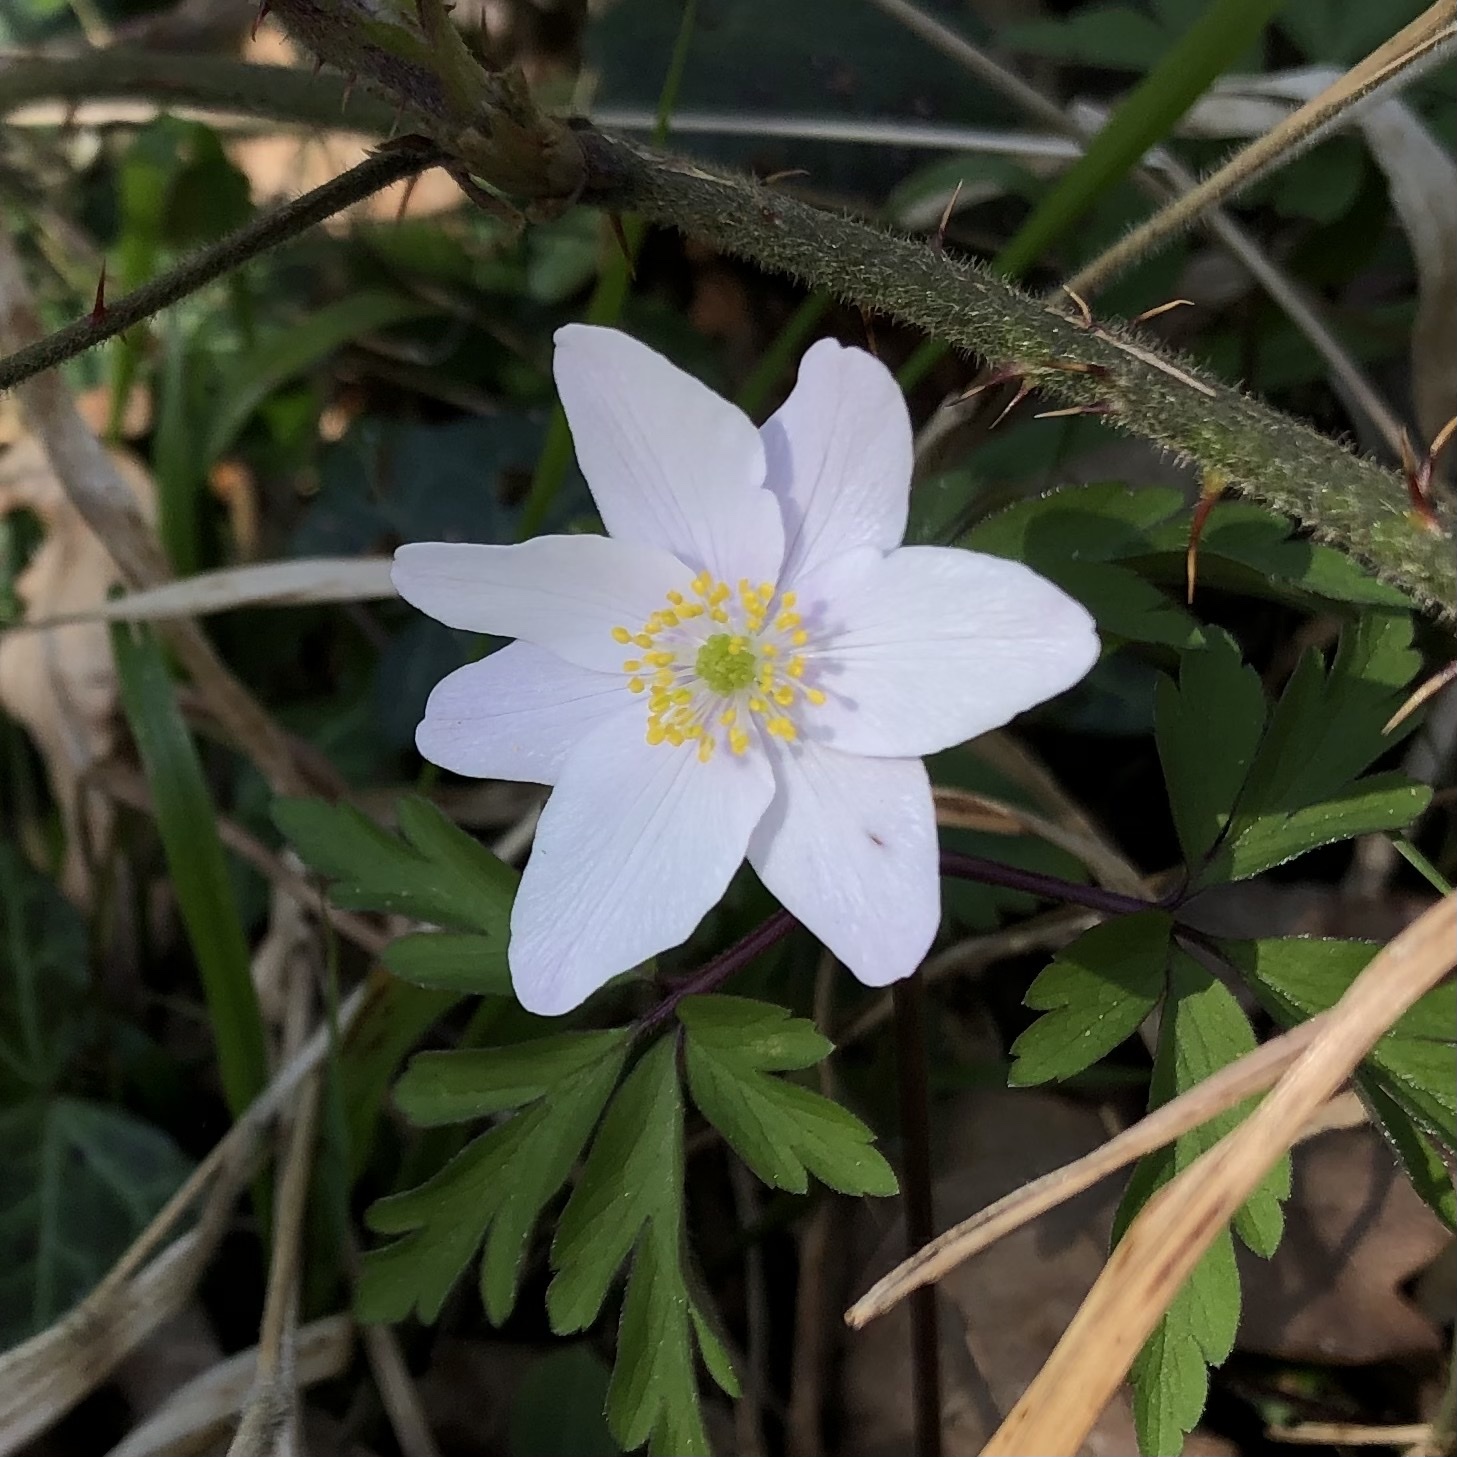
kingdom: Plantae
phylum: Tracheophyta
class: Magnoliopsida
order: Ranunculales
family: Ranunculaceae
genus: Anemone
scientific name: Anemone nemorosa
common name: Wood anemone
